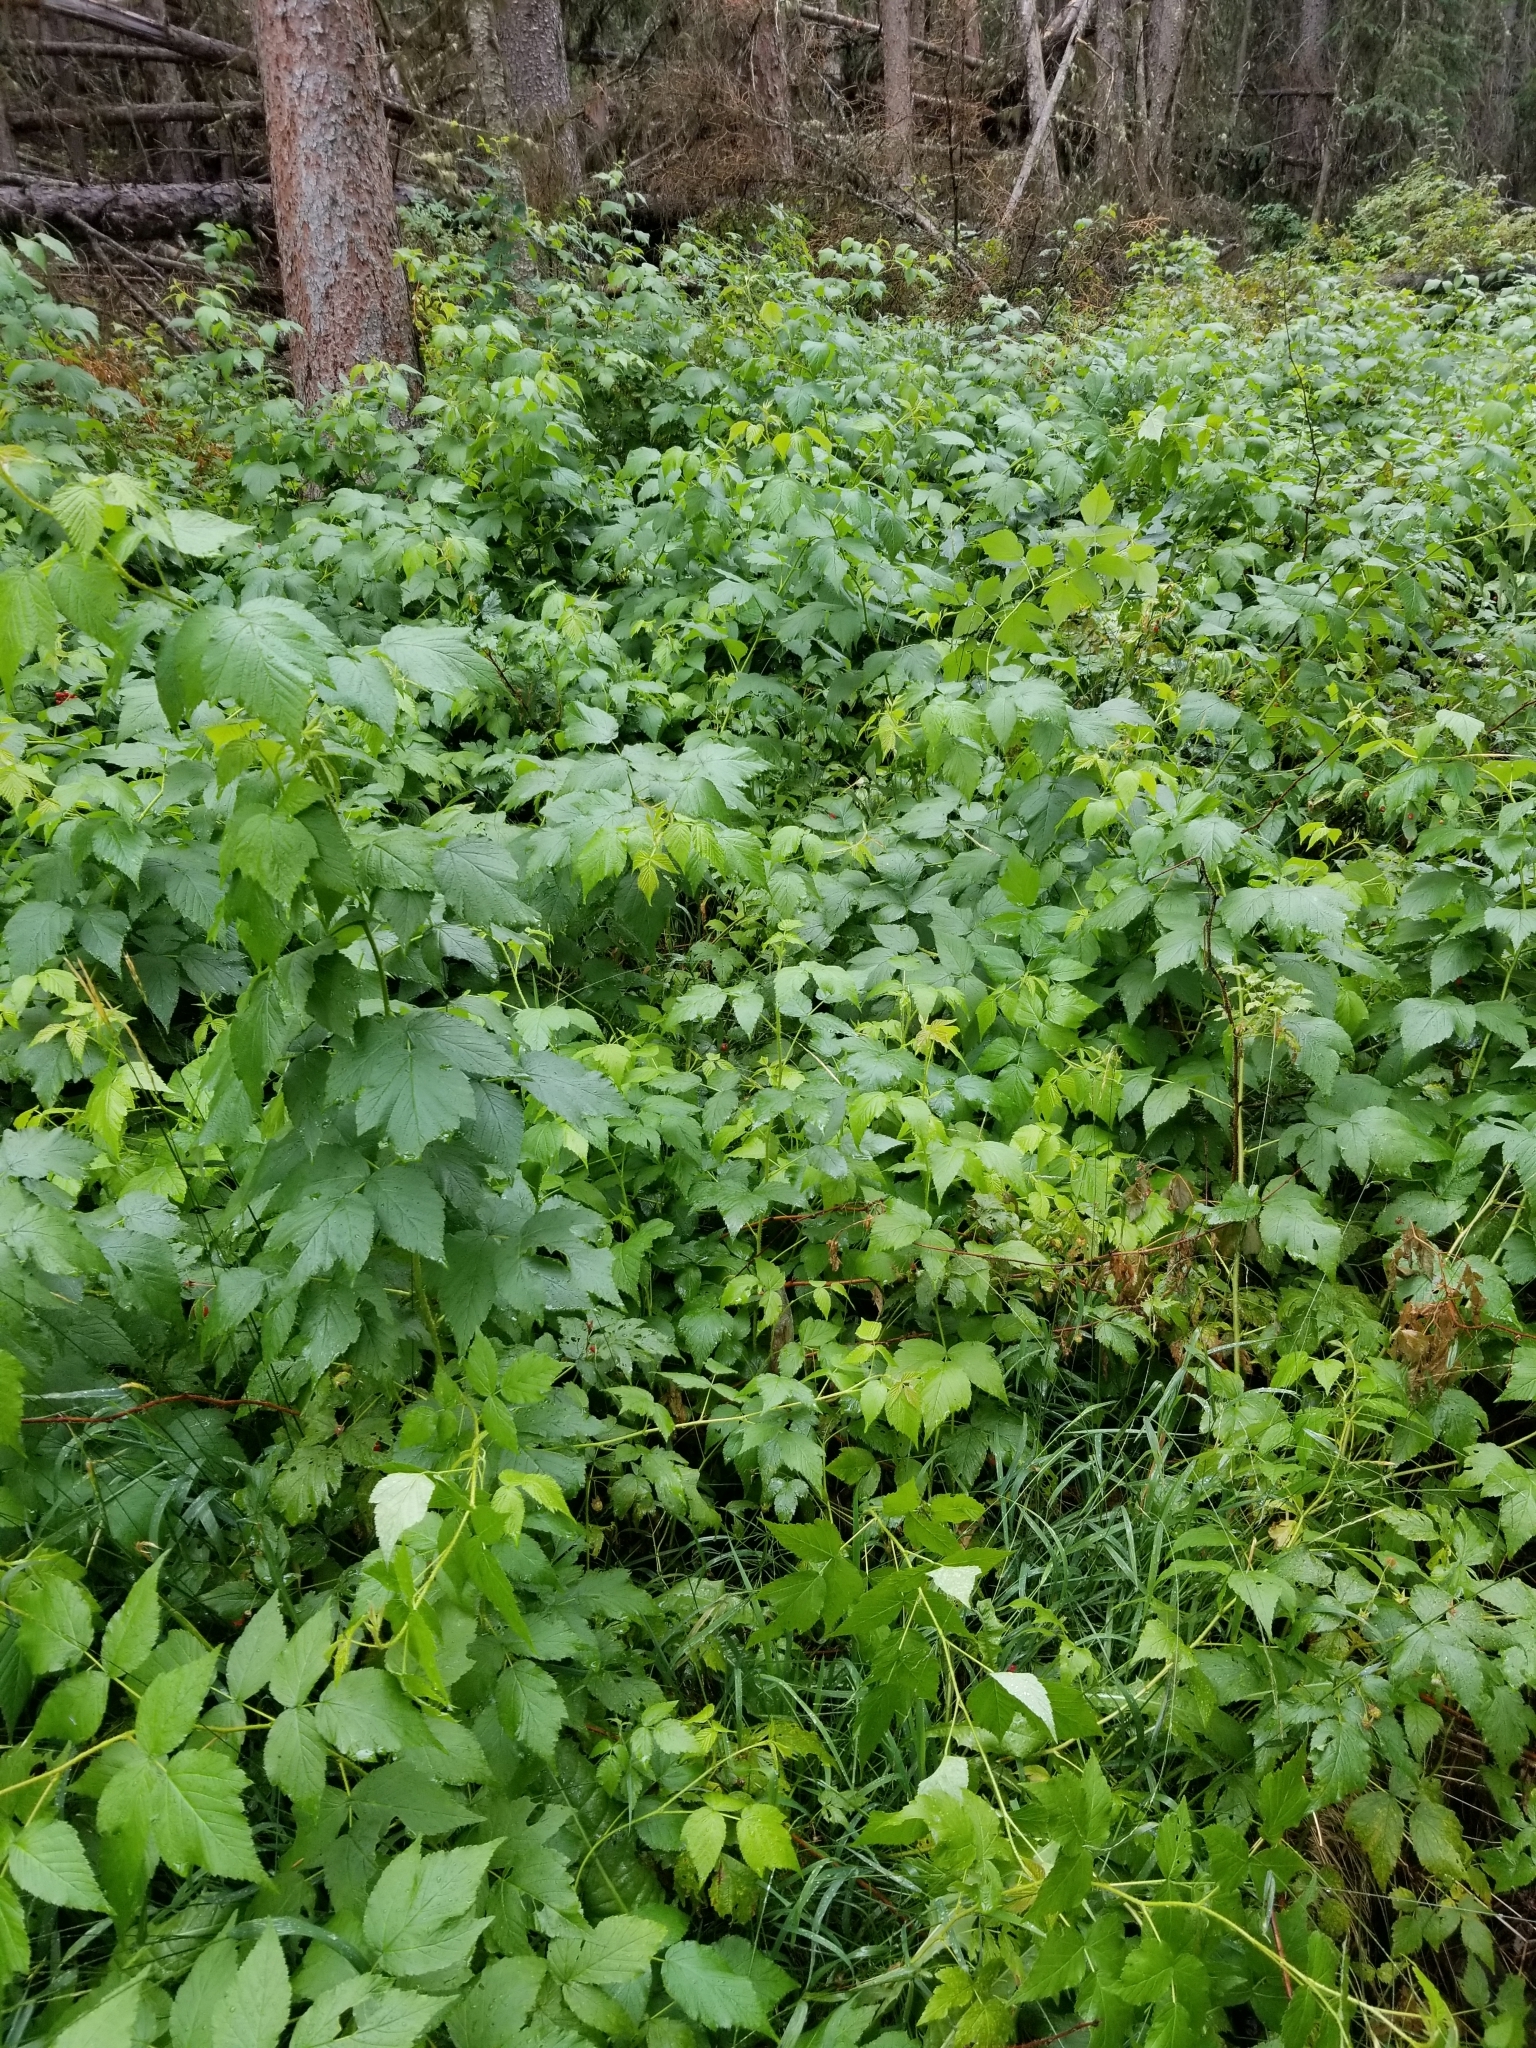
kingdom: Plantae
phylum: Tracheophyta
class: Magnoliopsida
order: Rosales
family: Rosaceae
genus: Rubus
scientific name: Rubus idaeus
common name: Raspberry
